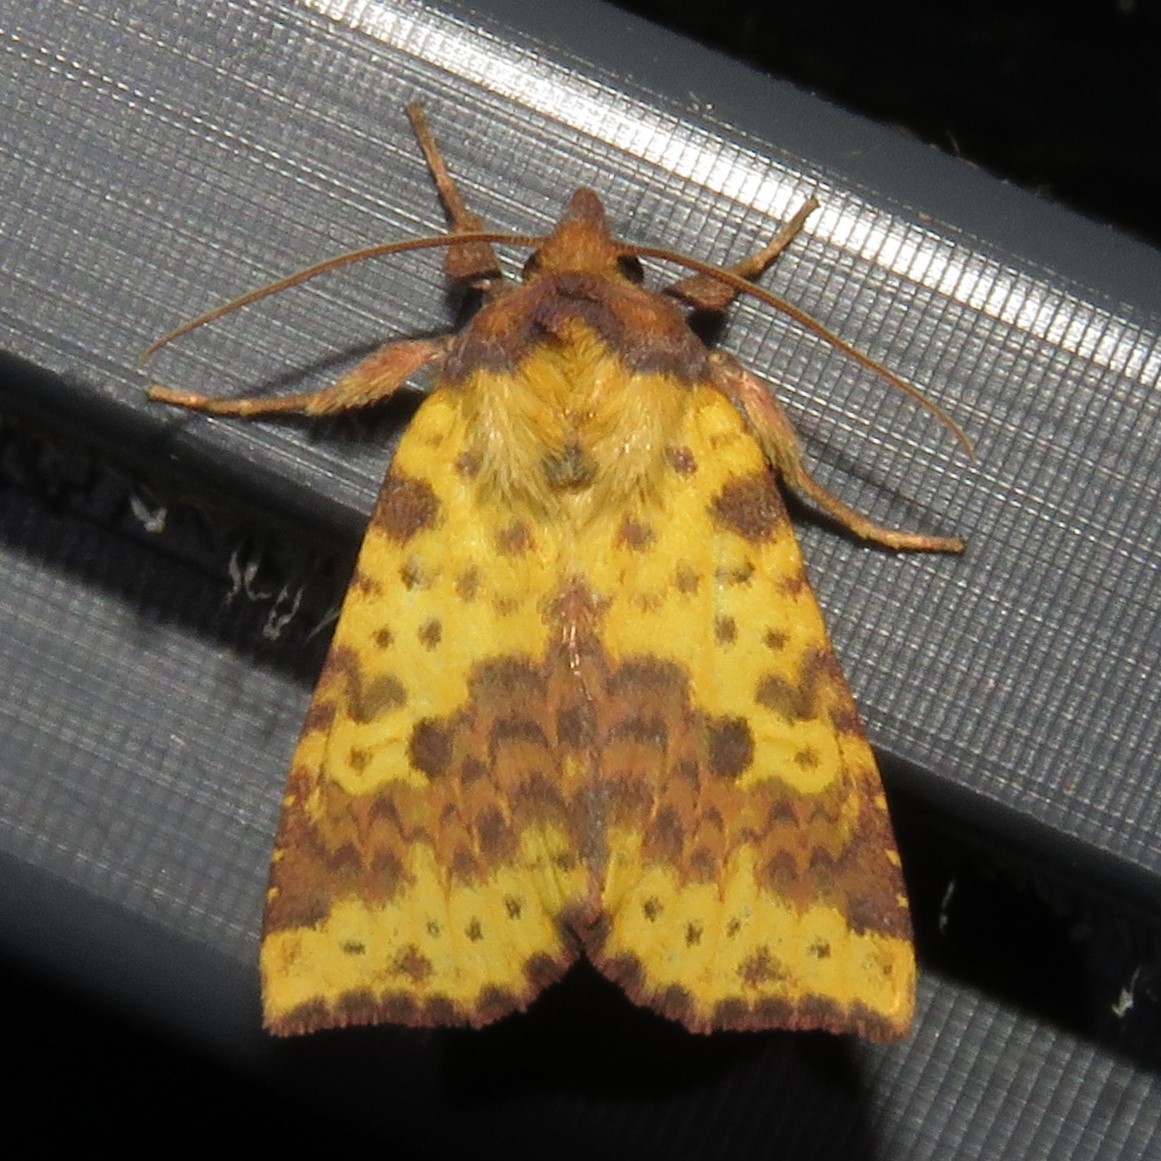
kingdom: Animalia
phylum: Arthropoda
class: Insecta
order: Lepidoptera
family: Noctuidae
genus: Xanthia
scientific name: Xanthia tatago
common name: Pink-banded sallow
